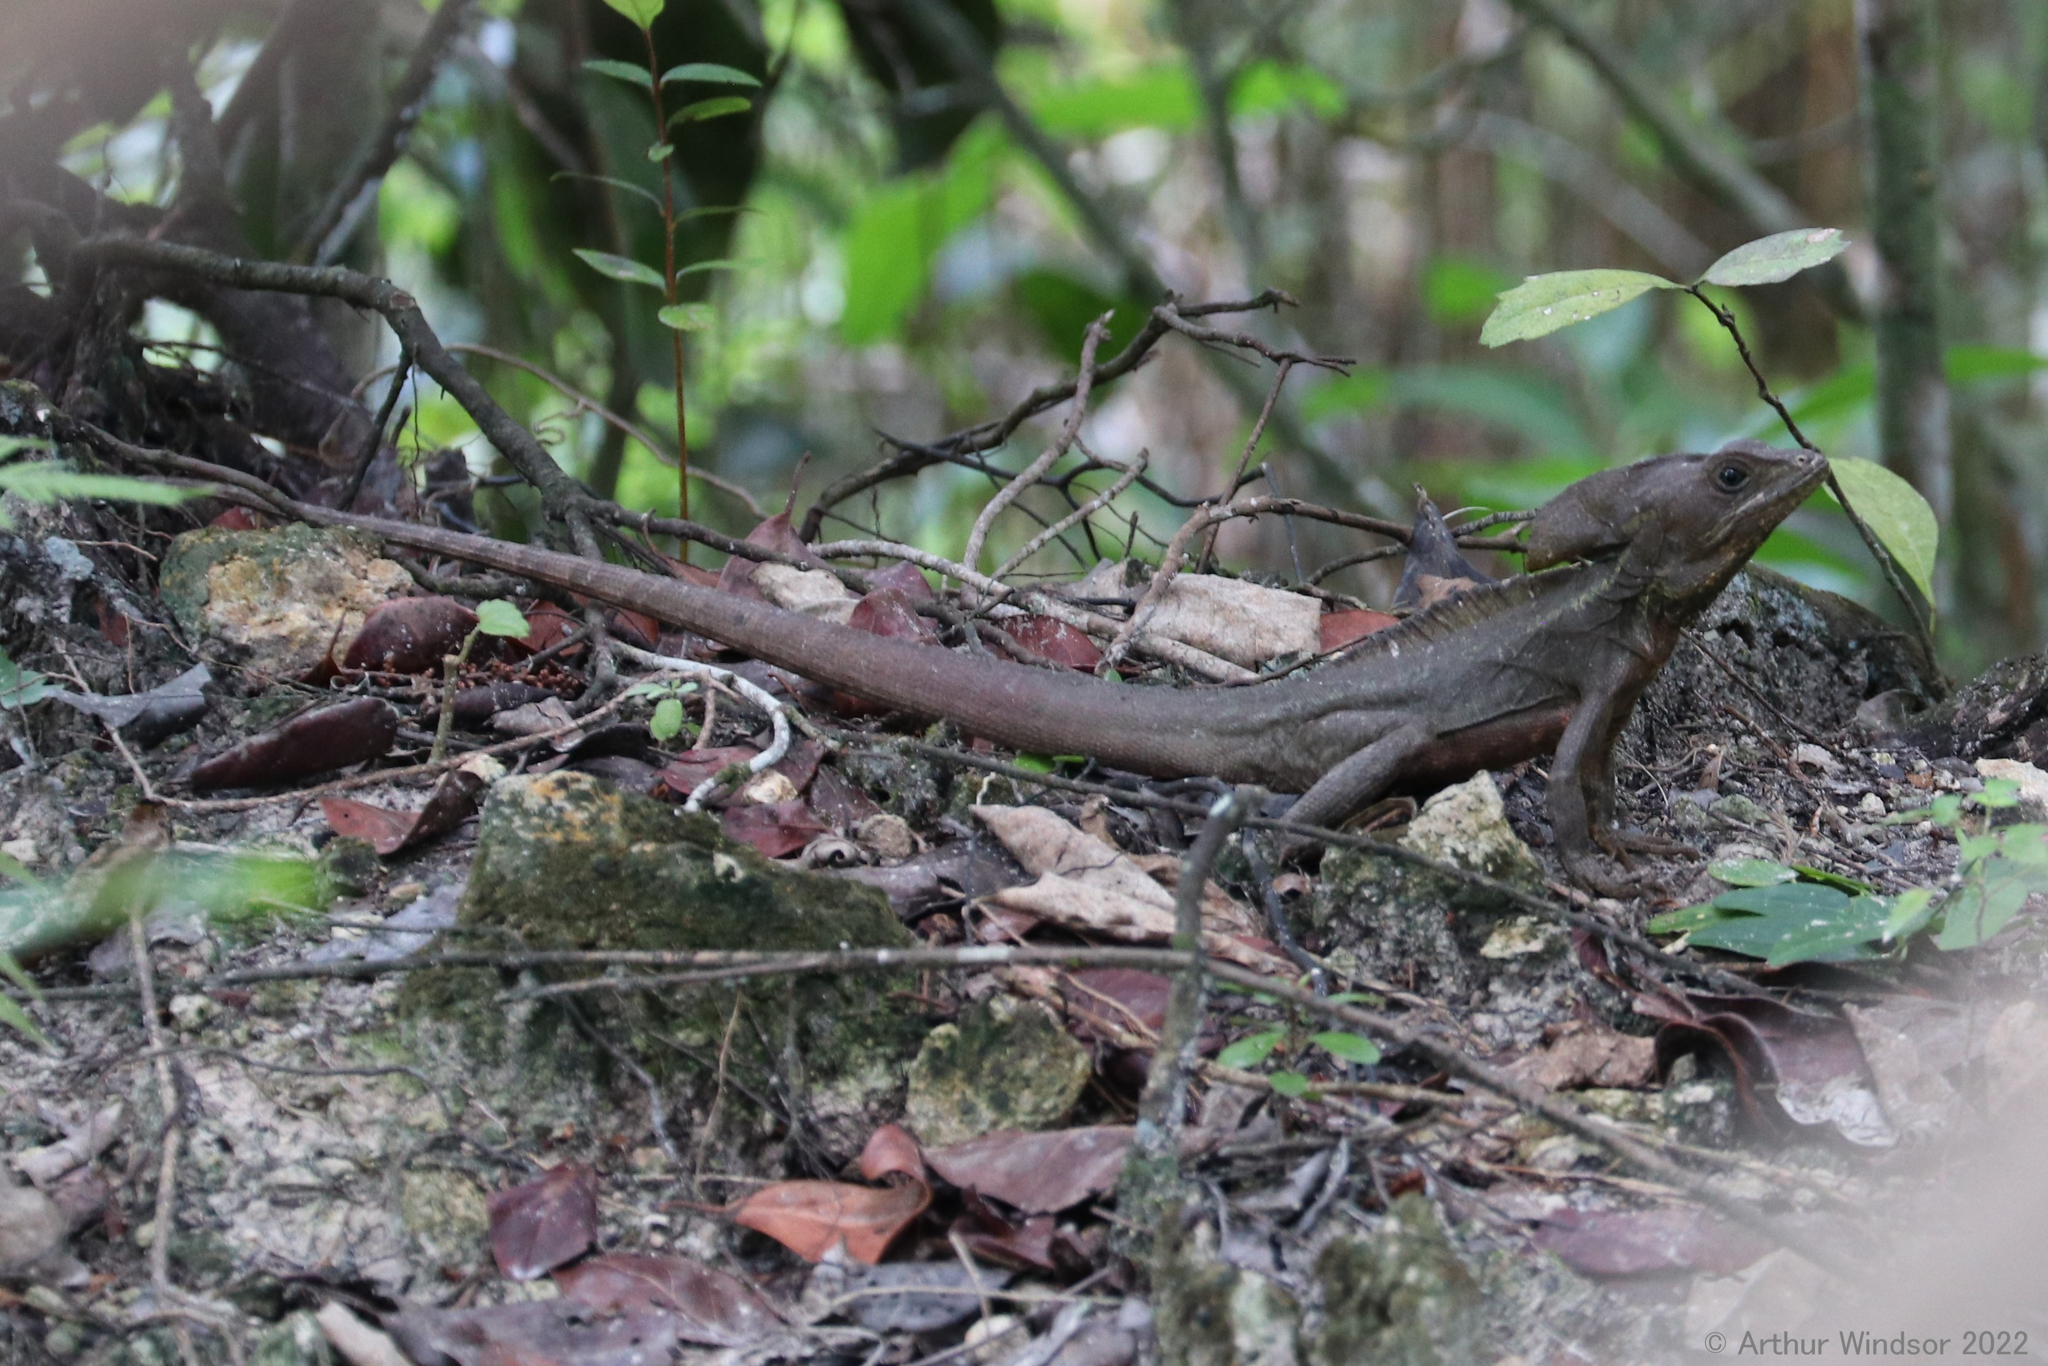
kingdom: Animalia
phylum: Chordata
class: Squamata
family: Corytophanidae
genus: Basiliscus
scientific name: Basiliscus vittatus
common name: Brown basilisk
